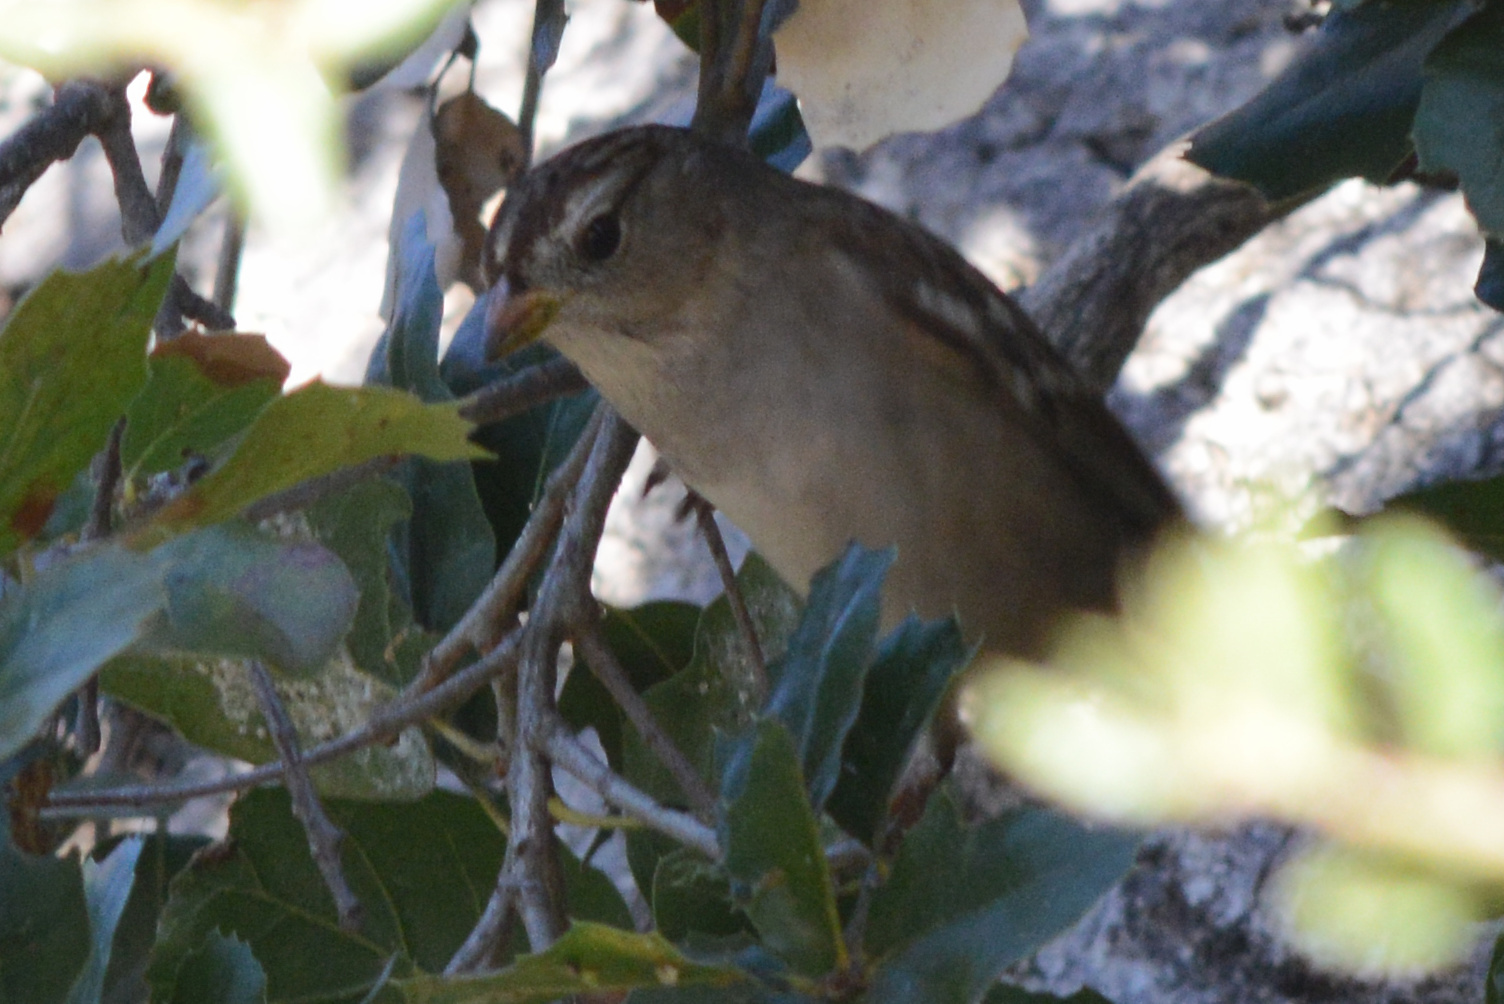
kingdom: Animalia
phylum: Chordata
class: Aves
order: Passeriformes
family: Passerellidae
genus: Zonotrichia
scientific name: Zonotrichia leucophrys
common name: White-crowned sparrow
